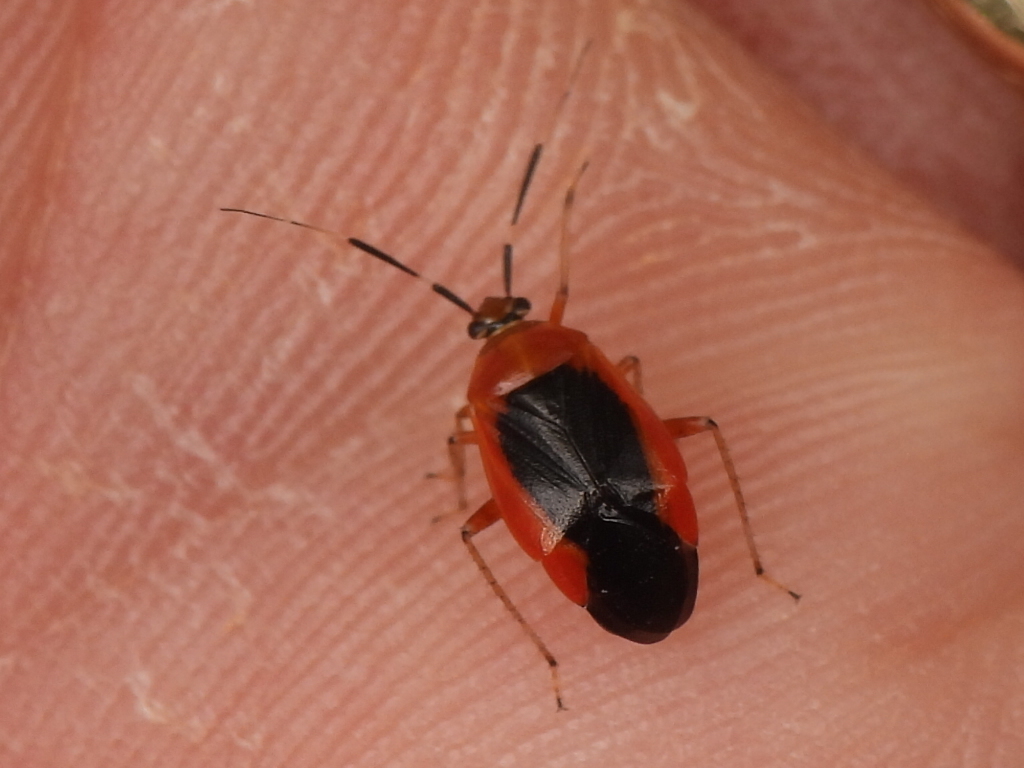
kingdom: Animalia
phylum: Arthropoda
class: Insecta
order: Hemiptera
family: Miridae
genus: Metriorrhynchomiris
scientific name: Metriorrhynchomiris dislocatus
